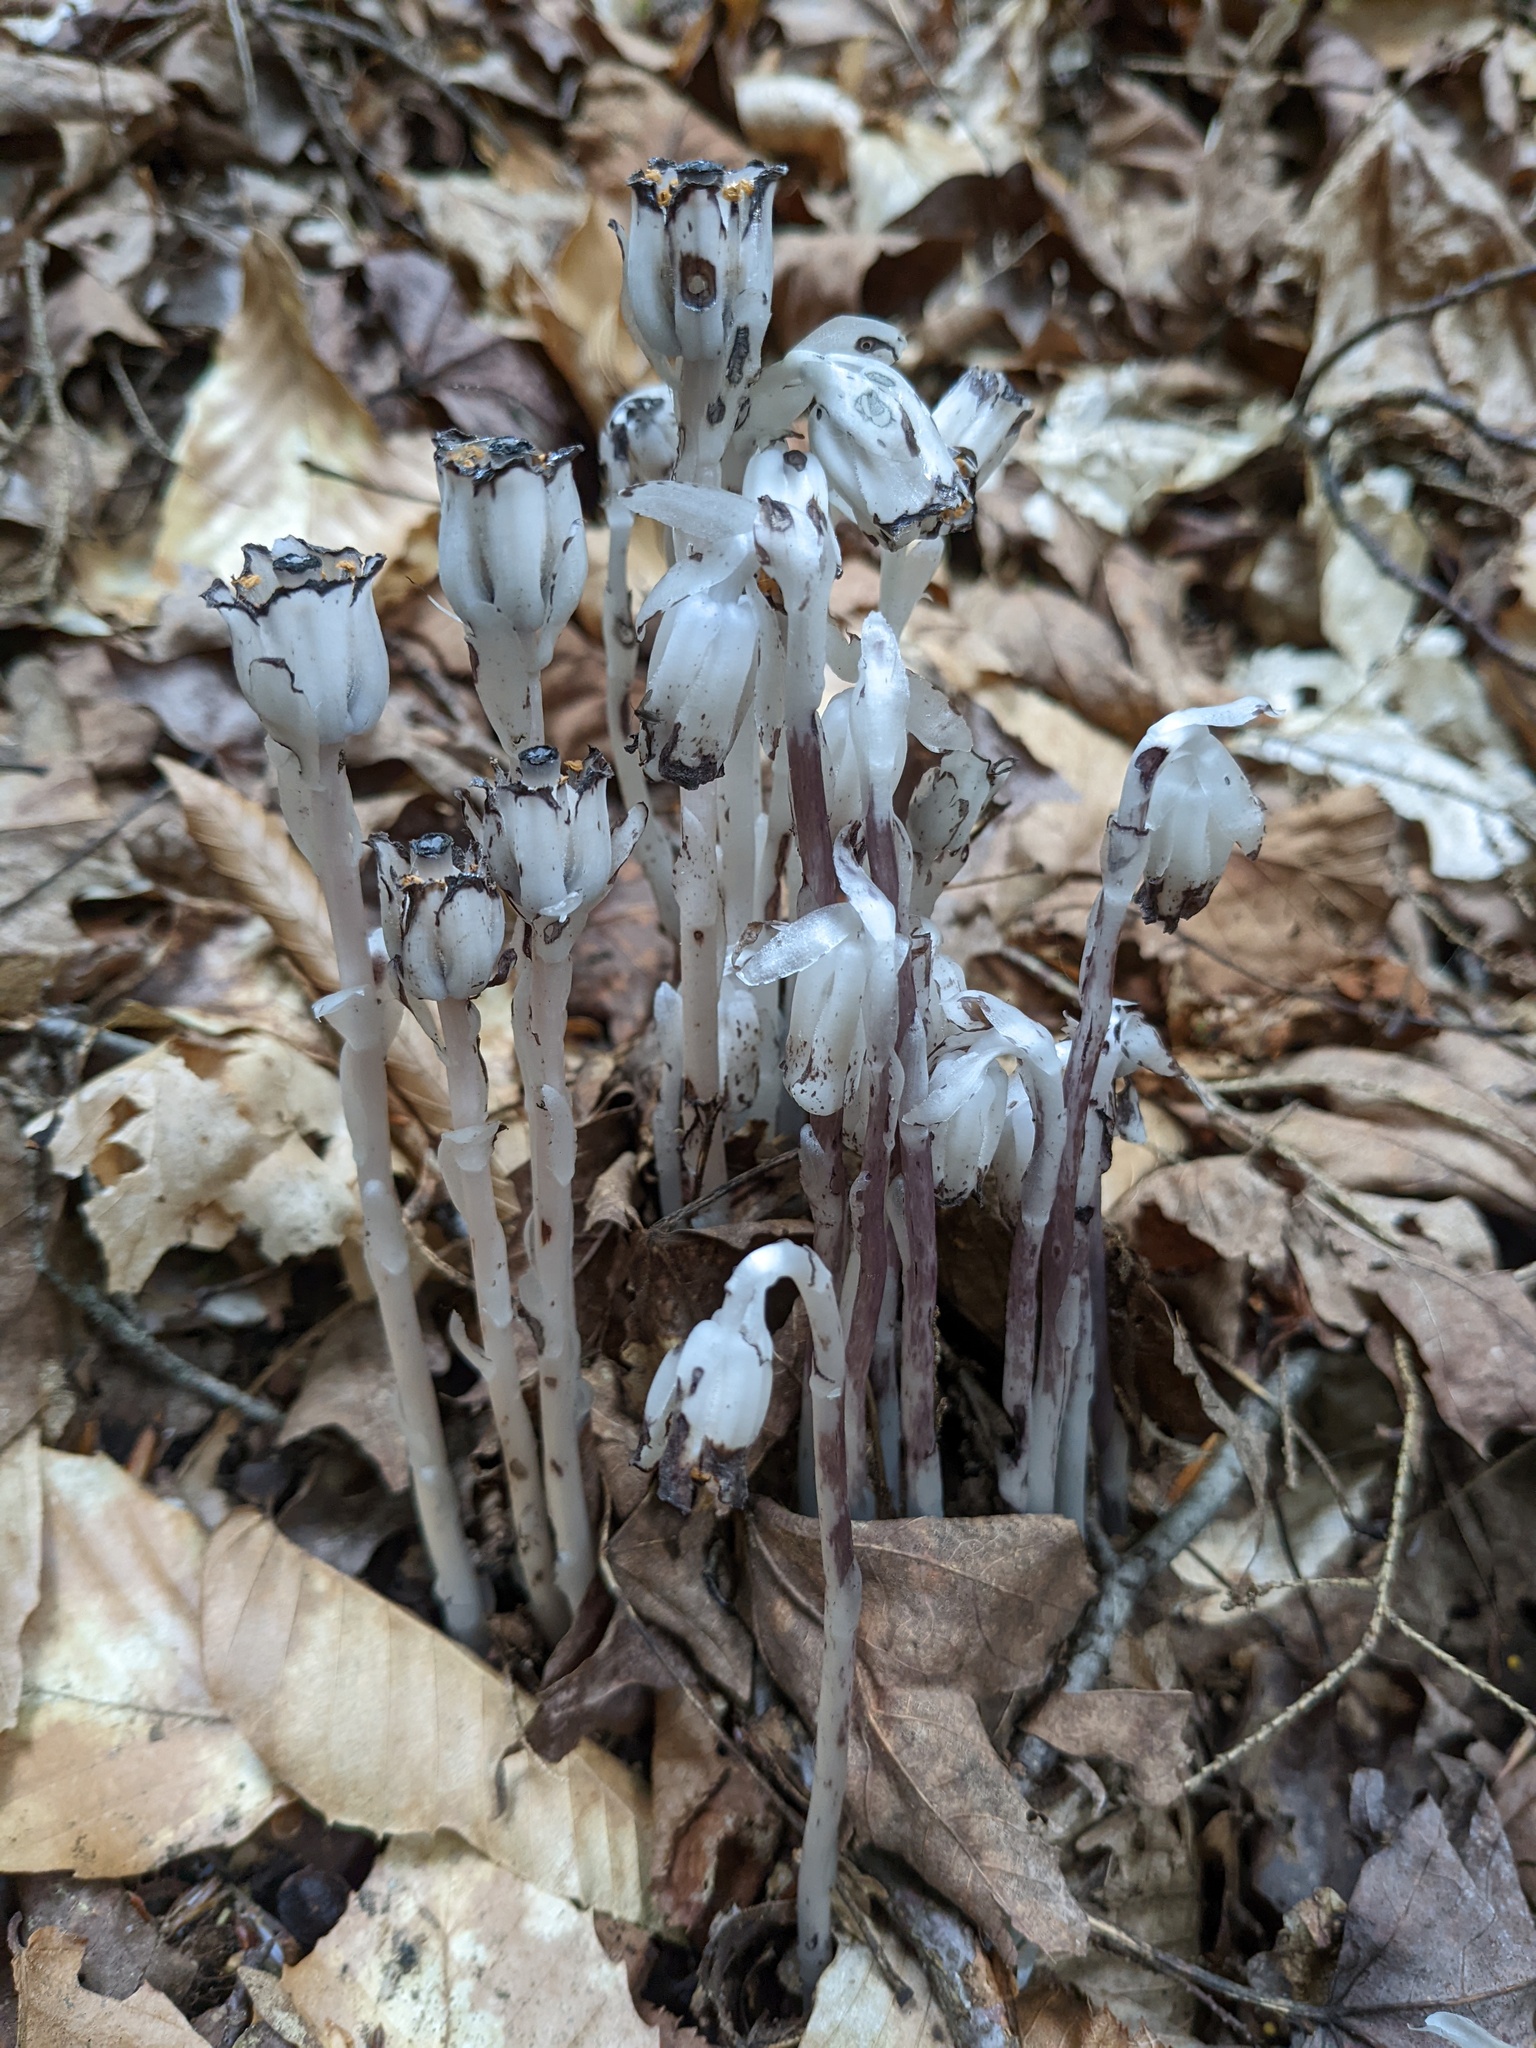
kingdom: Plantae
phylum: Tracheophyta
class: Magnoliopsida
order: Ericales
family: Ericaceae
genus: Monotropa
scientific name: Monotropa uniflora
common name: Convulsion root
